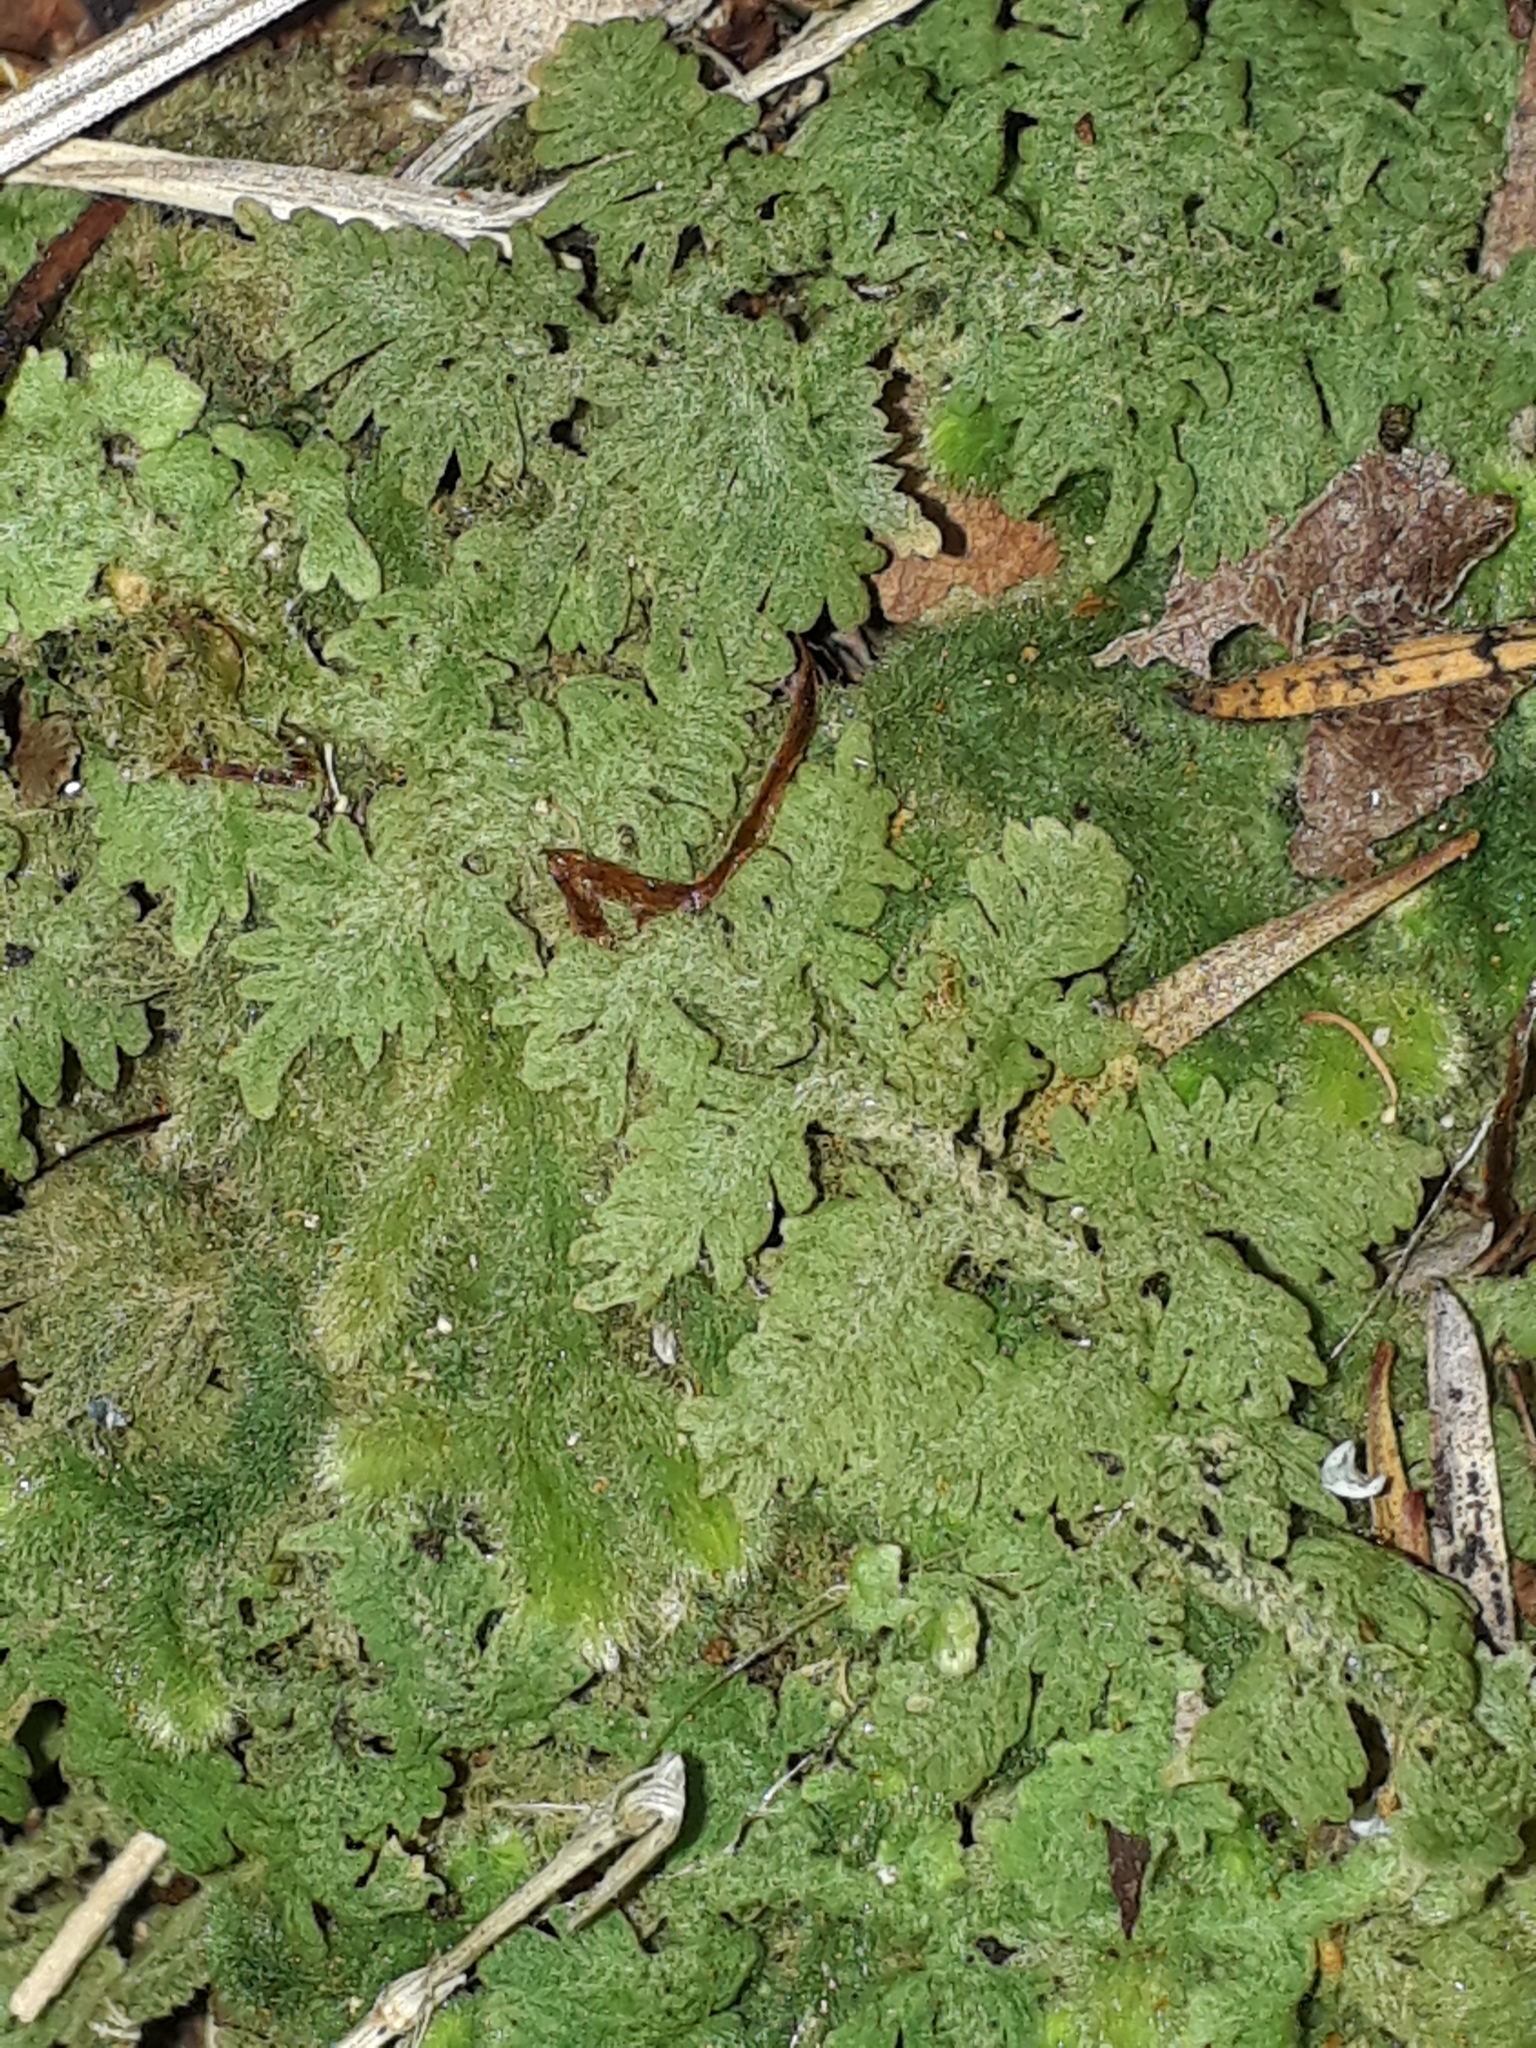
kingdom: Plantae
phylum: Marchantiophyta
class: Jungermanniopsida
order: Jungermanniales
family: Trichocoleaceae
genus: Trichocolea
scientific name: Trichocolea mollissima
